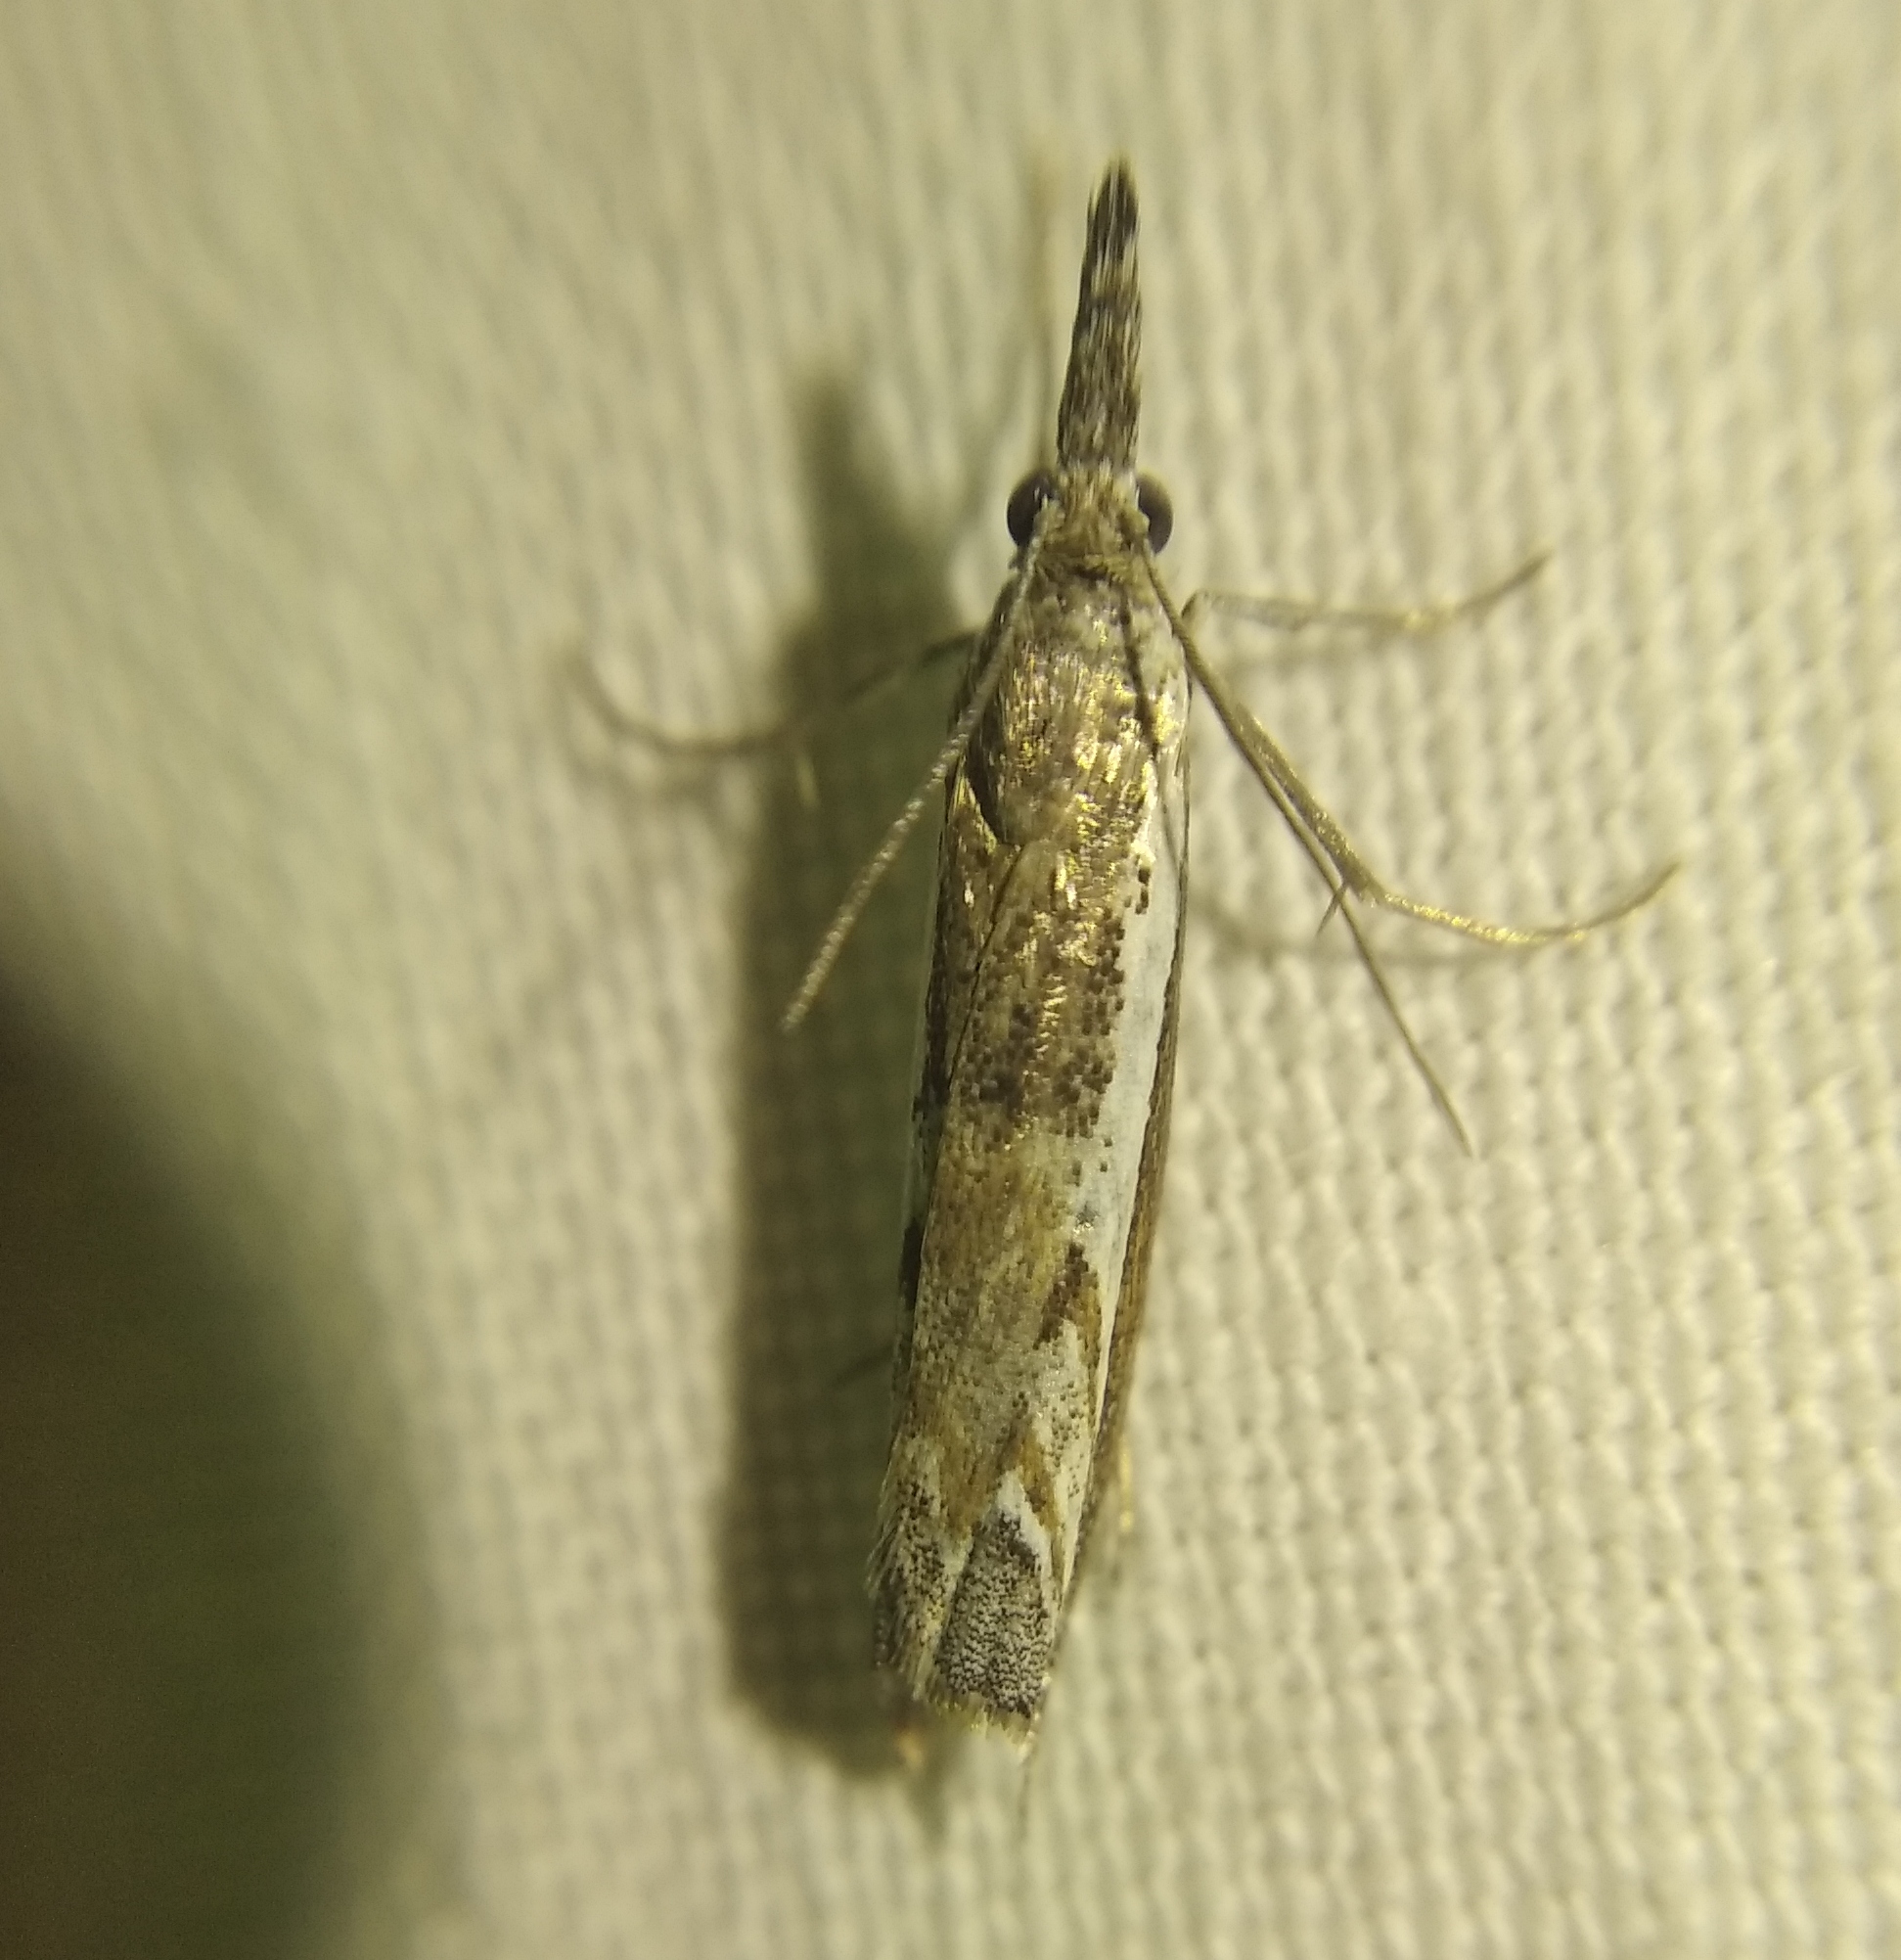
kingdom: Animalia
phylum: Arthropoda
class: Insecta
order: Lepidoptera
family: Crambidae
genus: Platytes
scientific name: Platytes alpinella
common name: Hook-tipped grass-veneer
